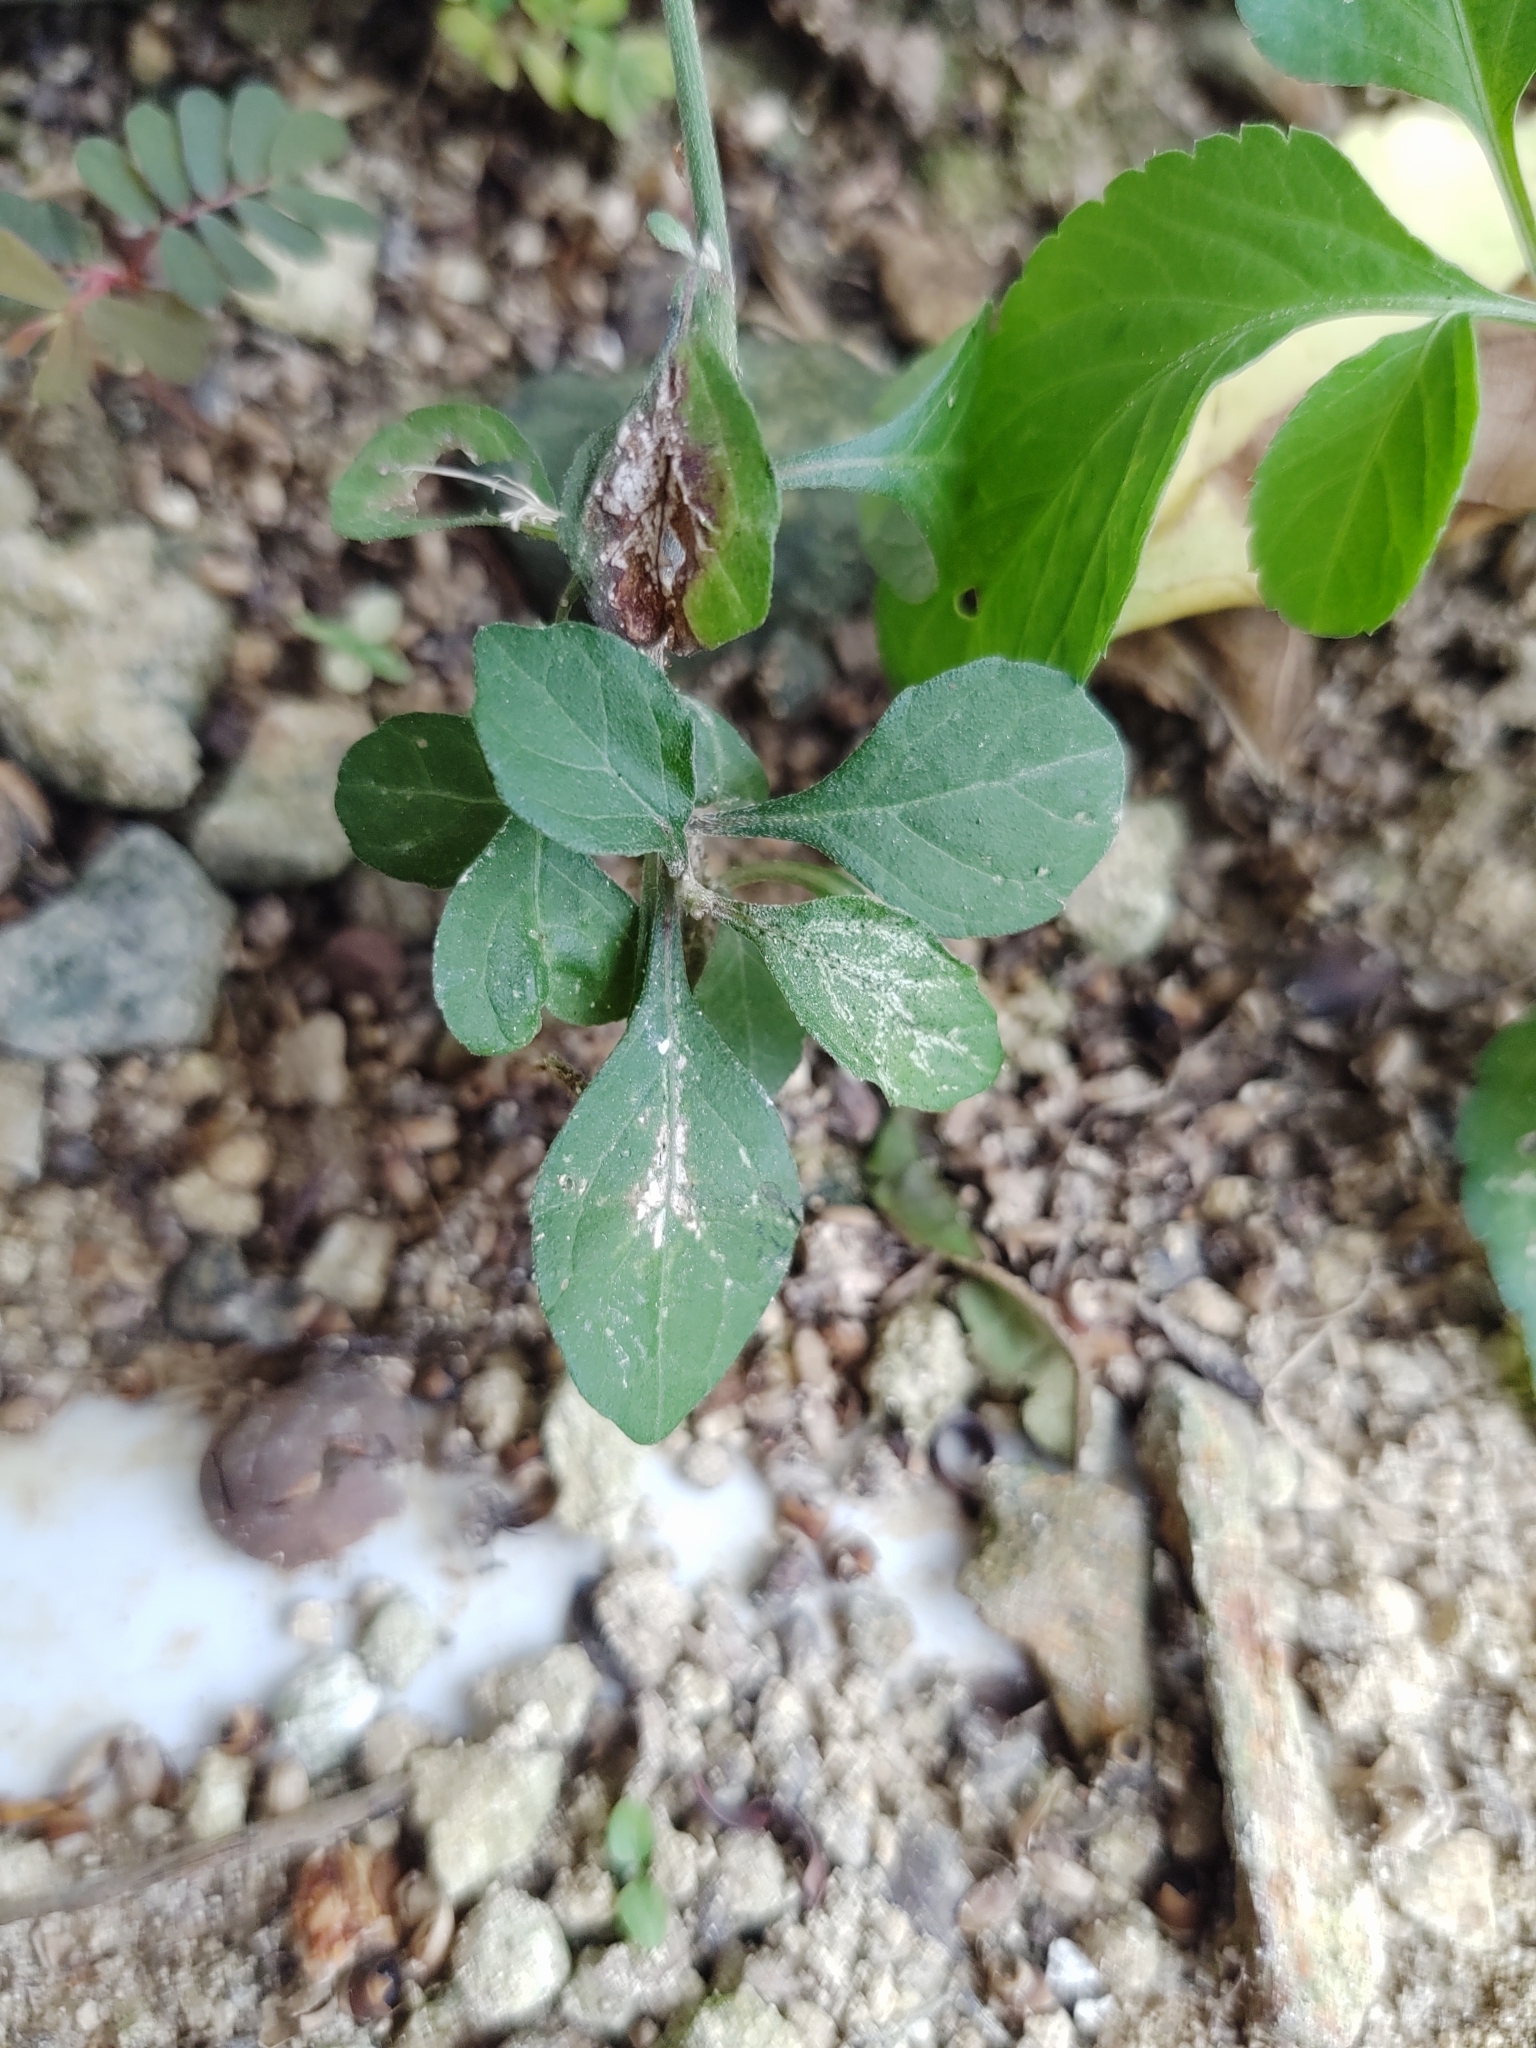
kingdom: Plantae
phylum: Tracheophyta
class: Magnoliopsida
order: Asterales
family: Asteraceae
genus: Cyanthillium
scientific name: Cyanthillium cinereum
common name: Little ironweed
